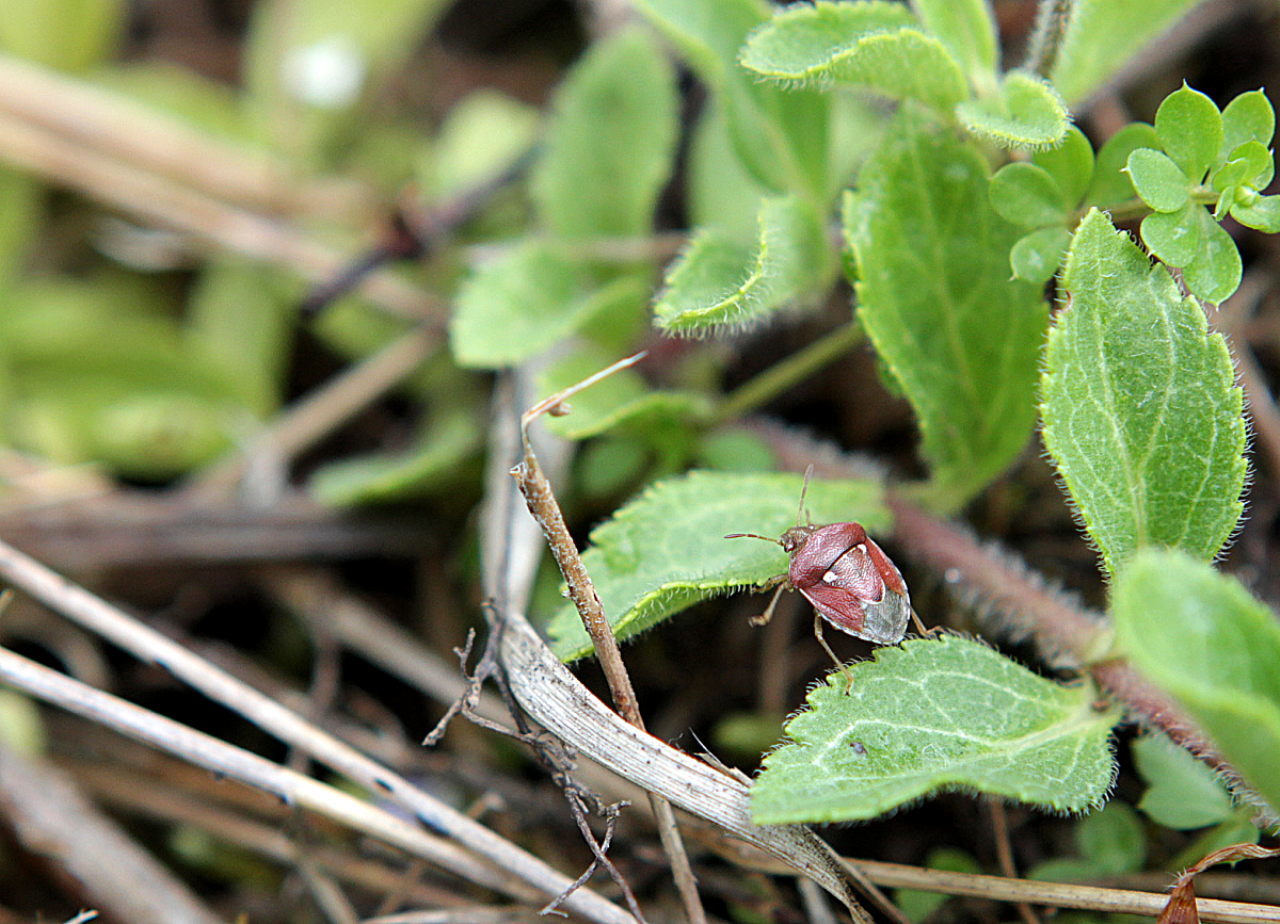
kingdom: Animalia
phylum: Arthropoda
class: Insecta
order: Hemiptera
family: Pentatomidae
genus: Stagonomus
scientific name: Stagonomus bipunctatus
